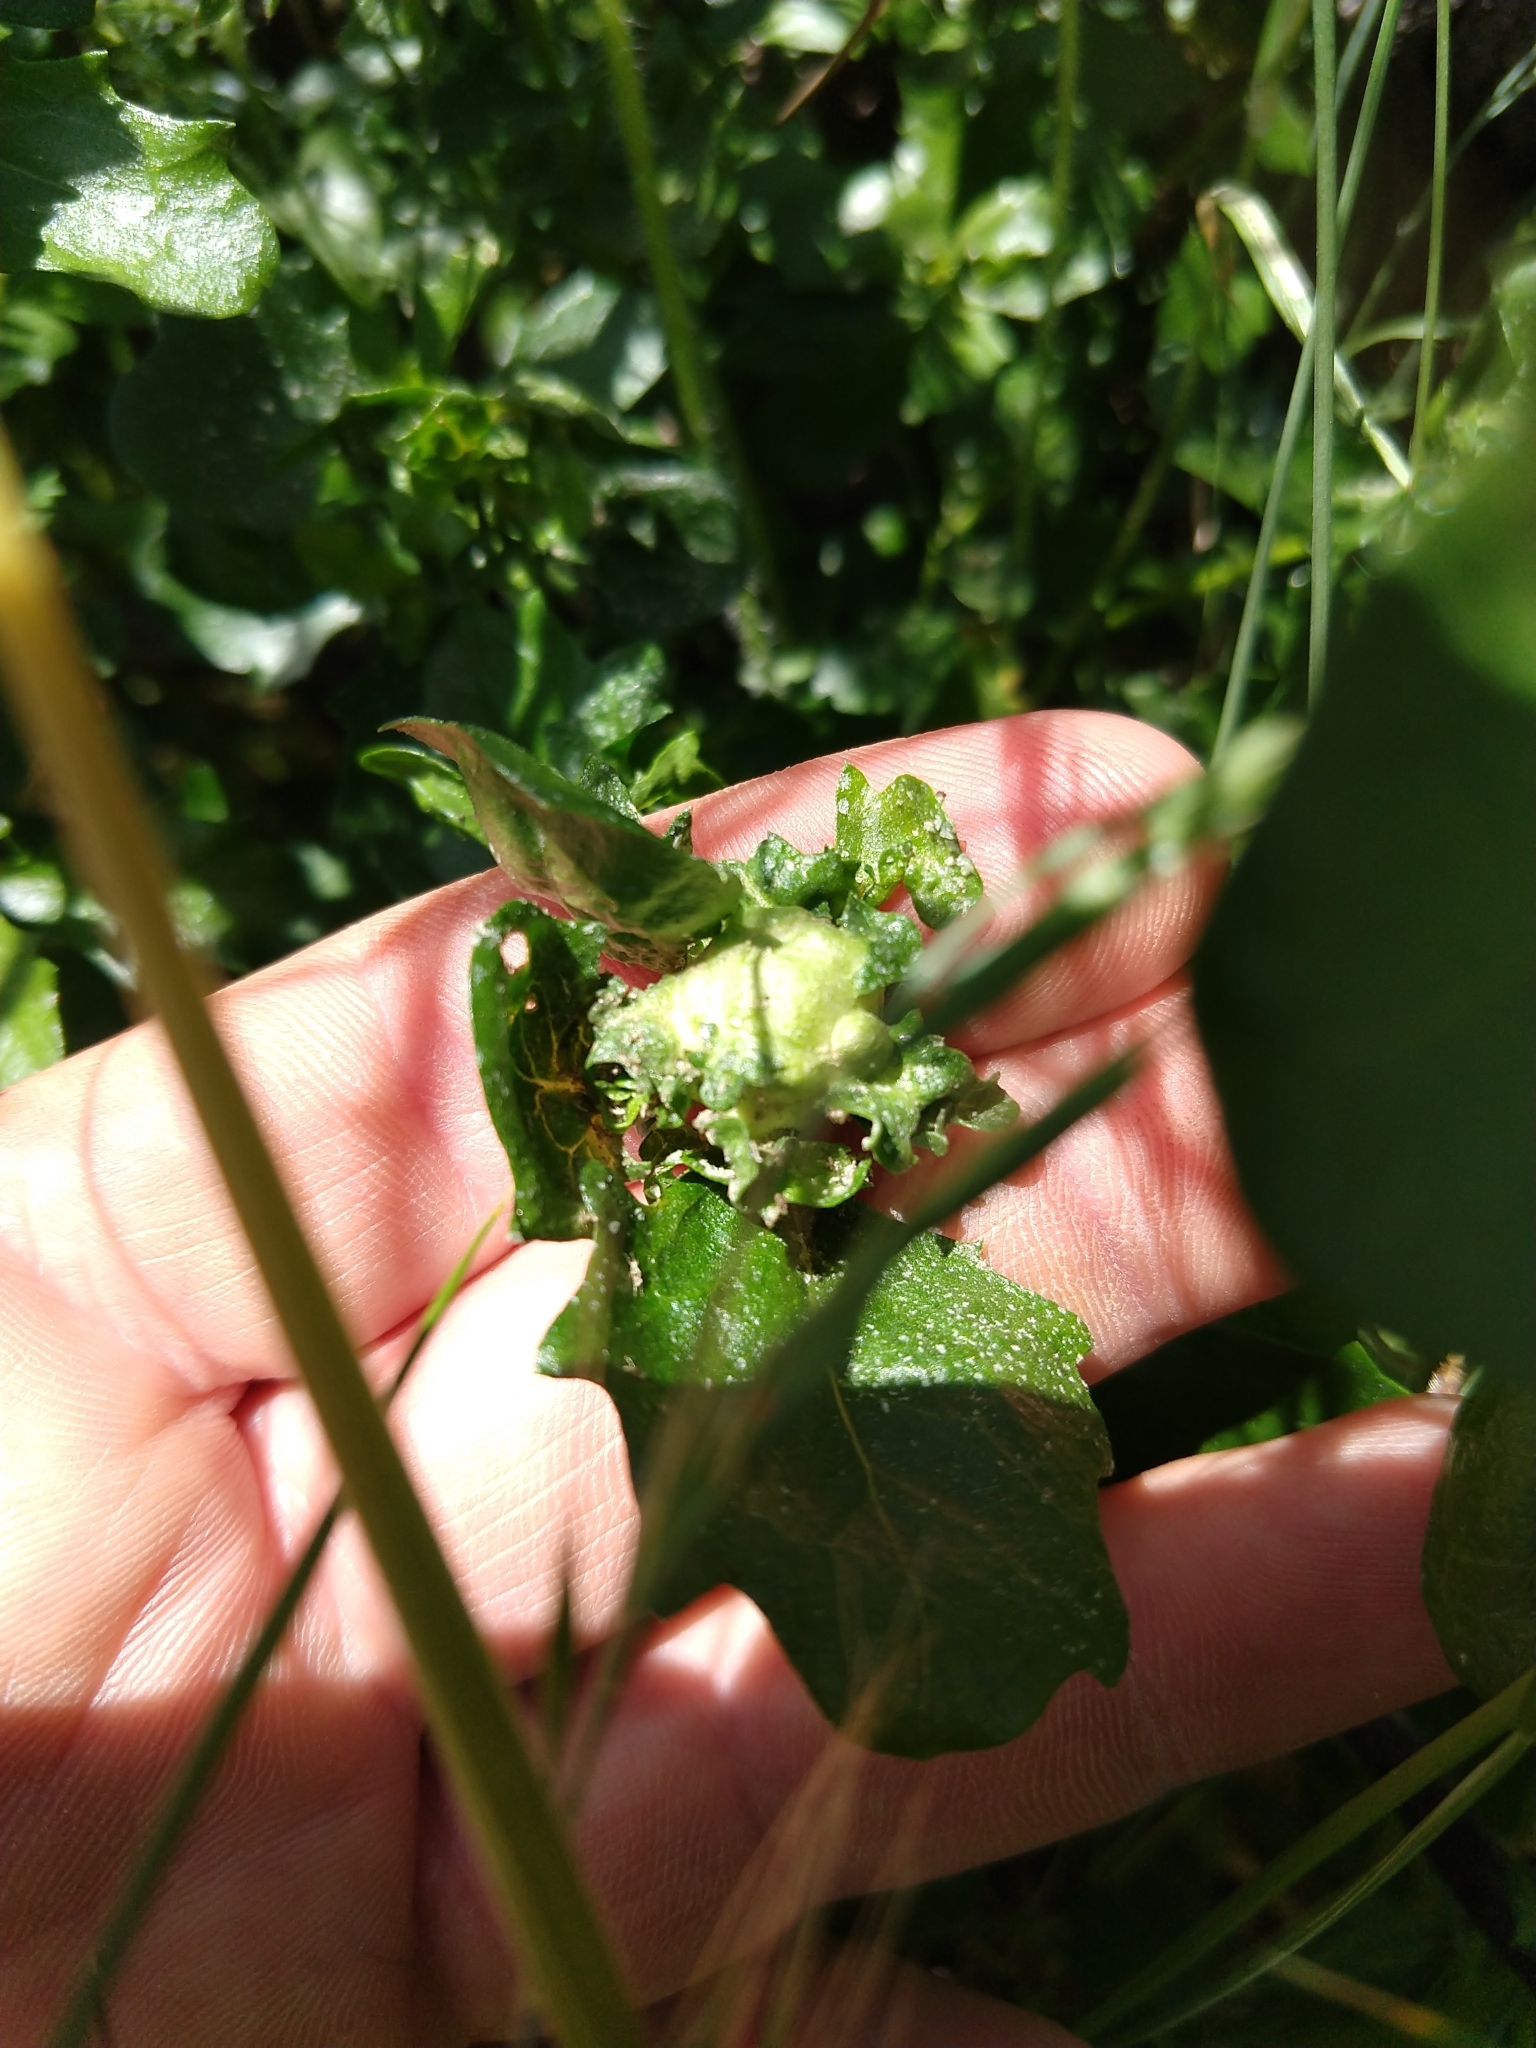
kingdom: Animalia
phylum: Arthropoda
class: Insecta
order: Diptera
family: Cecidomyiidae
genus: Rhopalomyia
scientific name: Rhopalomyia californica
